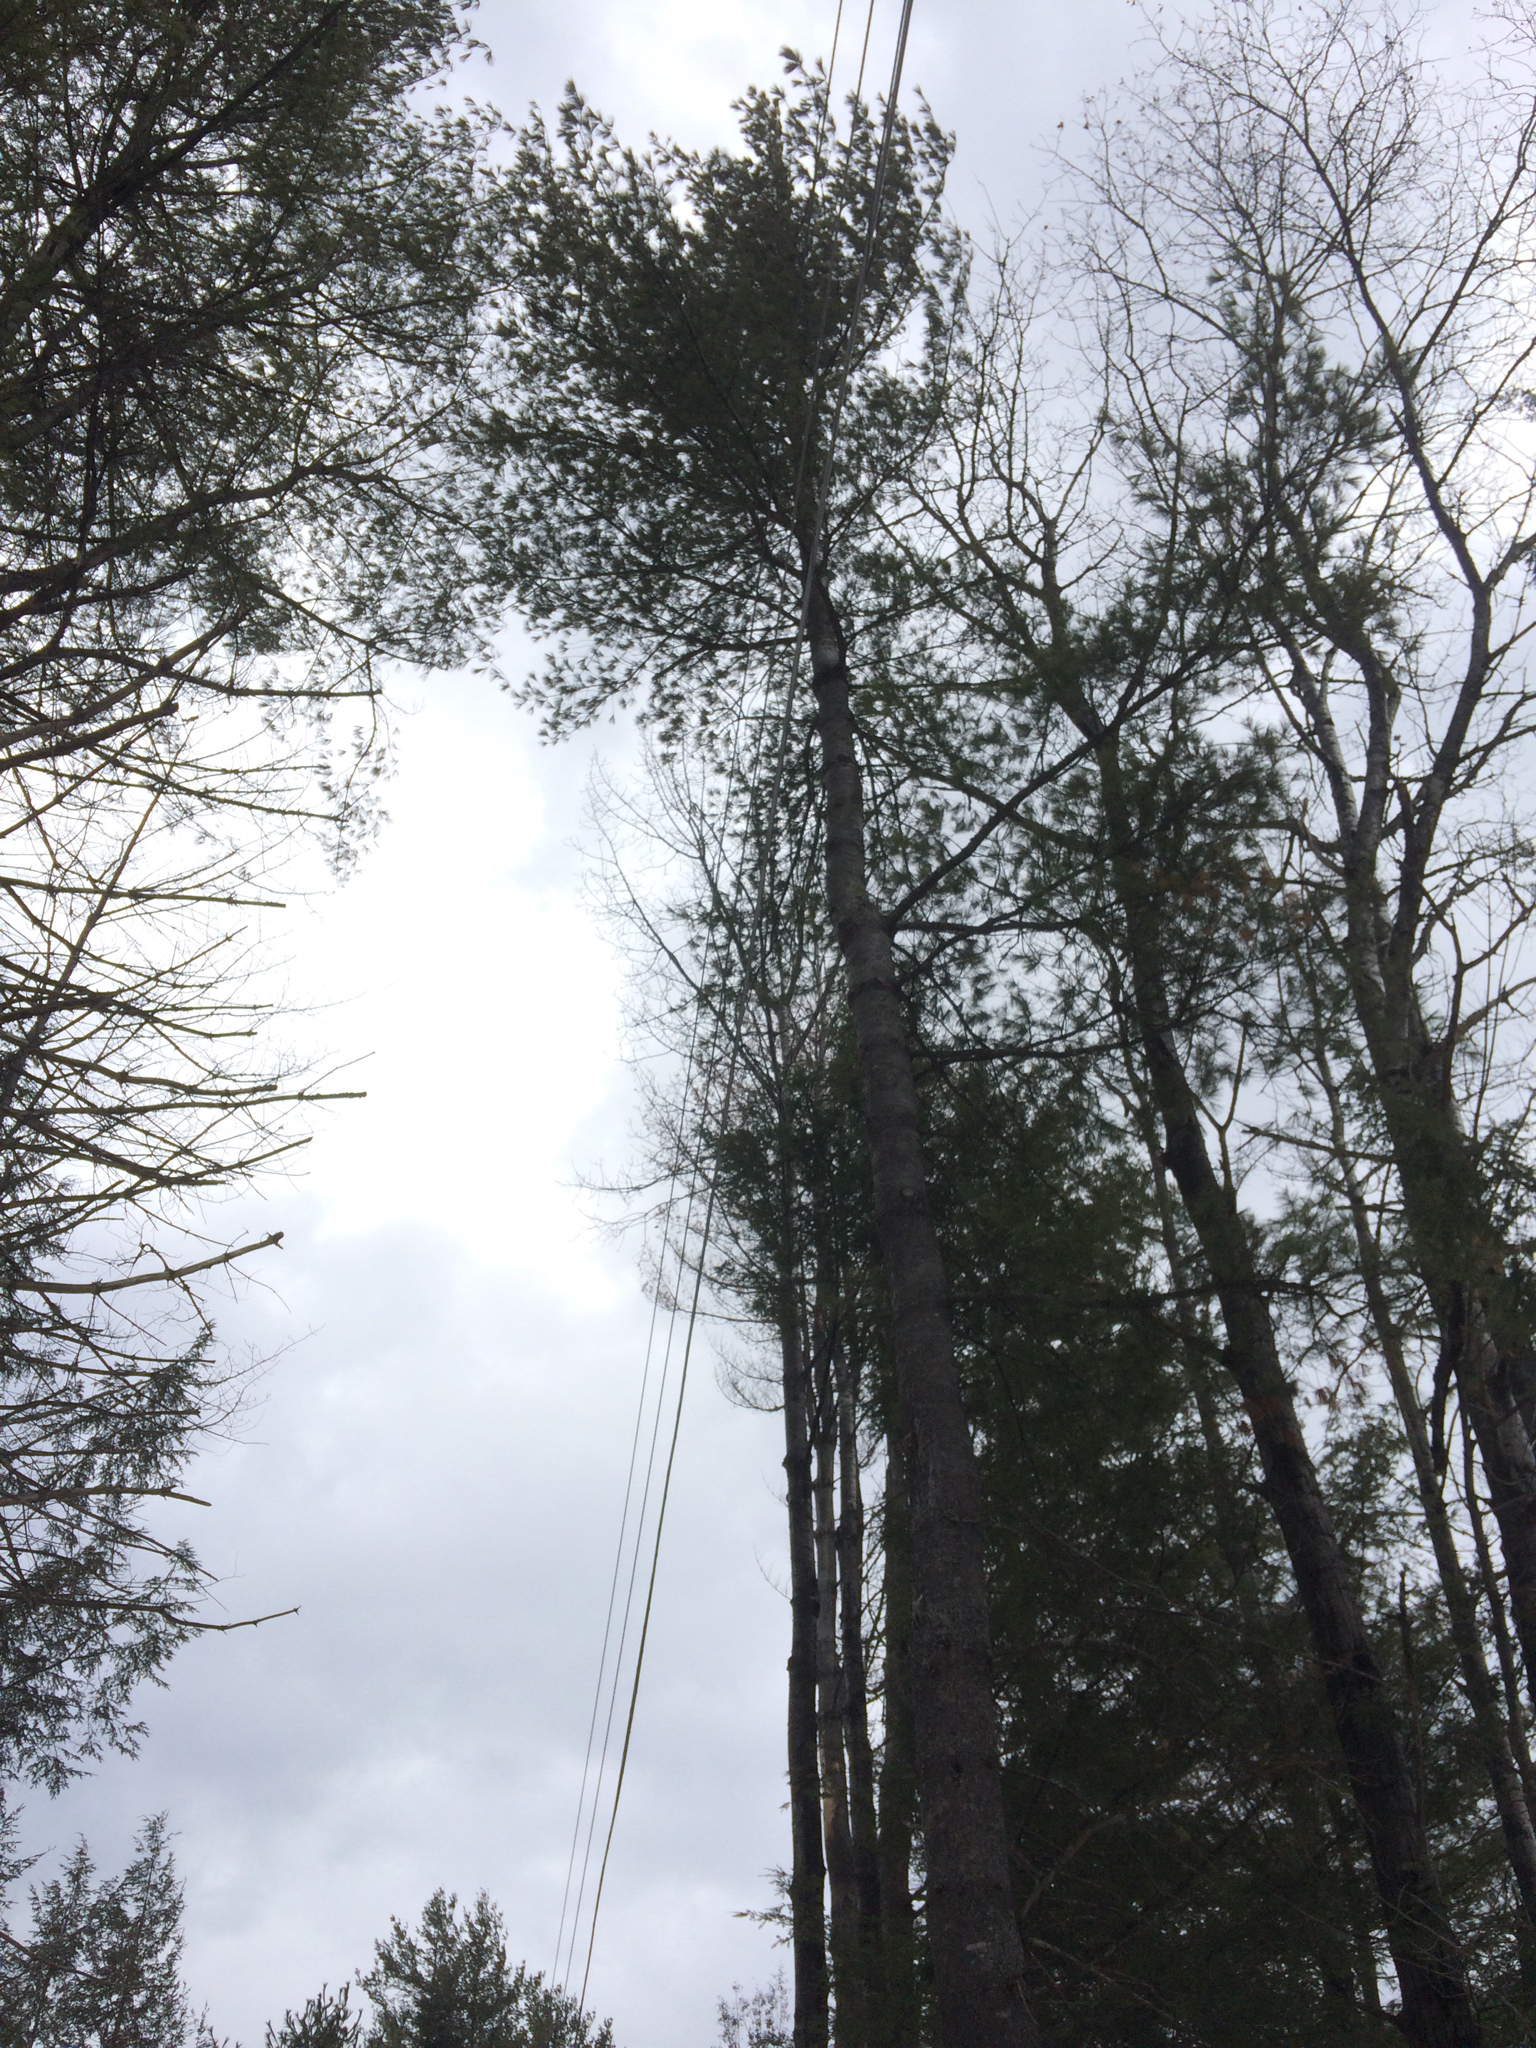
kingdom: Plantae
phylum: Tracheophyta
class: Pinopsida
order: Pinales
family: Pinaceae
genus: Pinus
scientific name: Pinus strobus
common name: Weymouth pine
